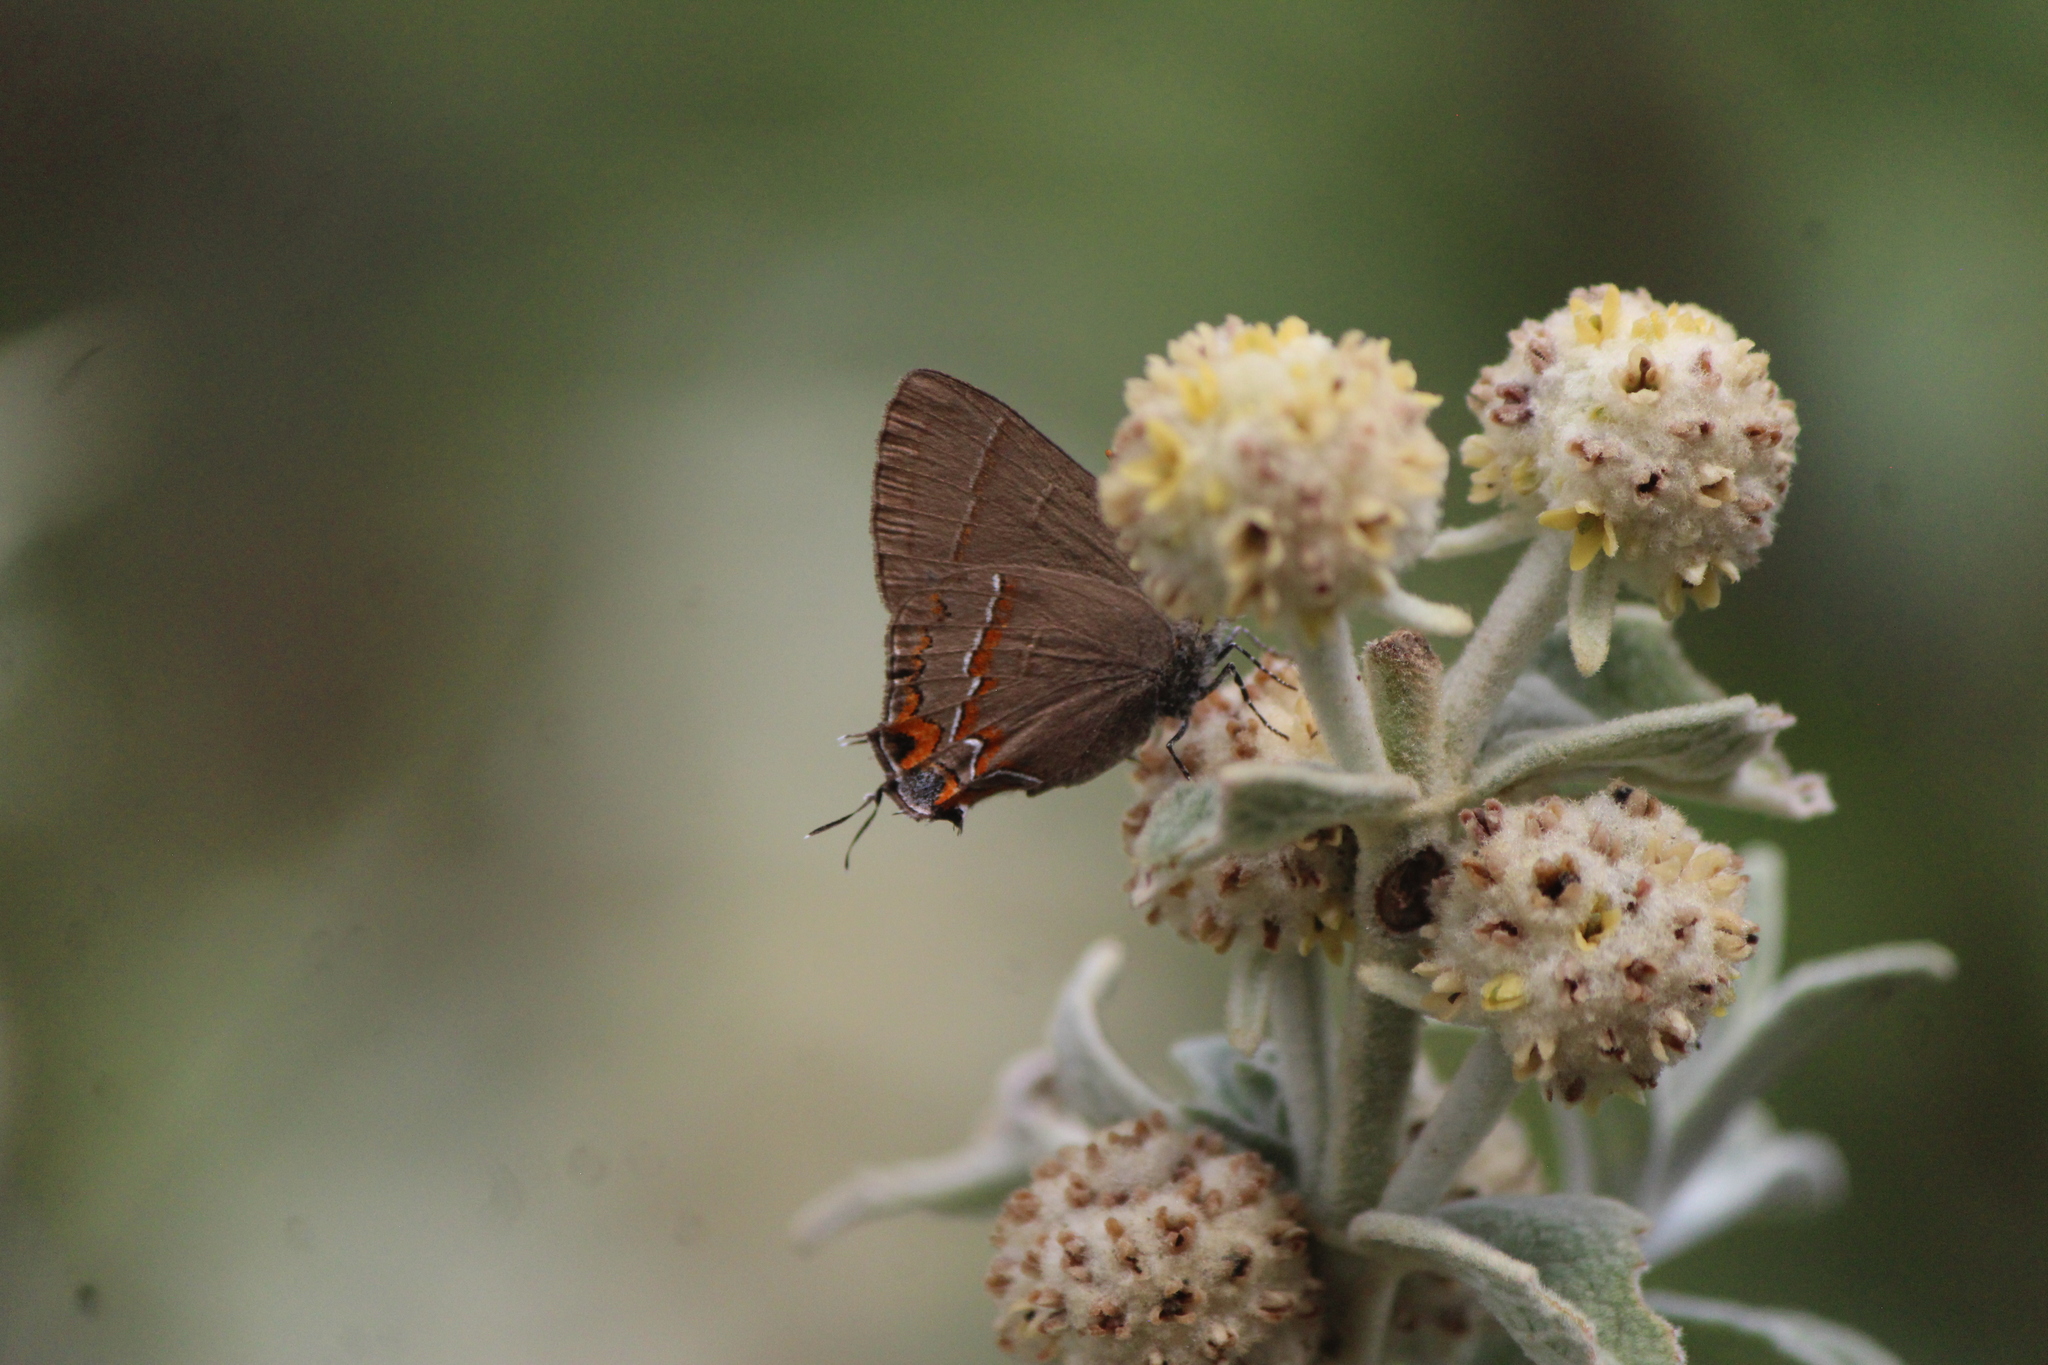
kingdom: Animalia
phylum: Arthropoda
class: Insecta
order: Lepidoptera
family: Lycaenidae
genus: Electrostrymon
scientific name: Electrostrymon
